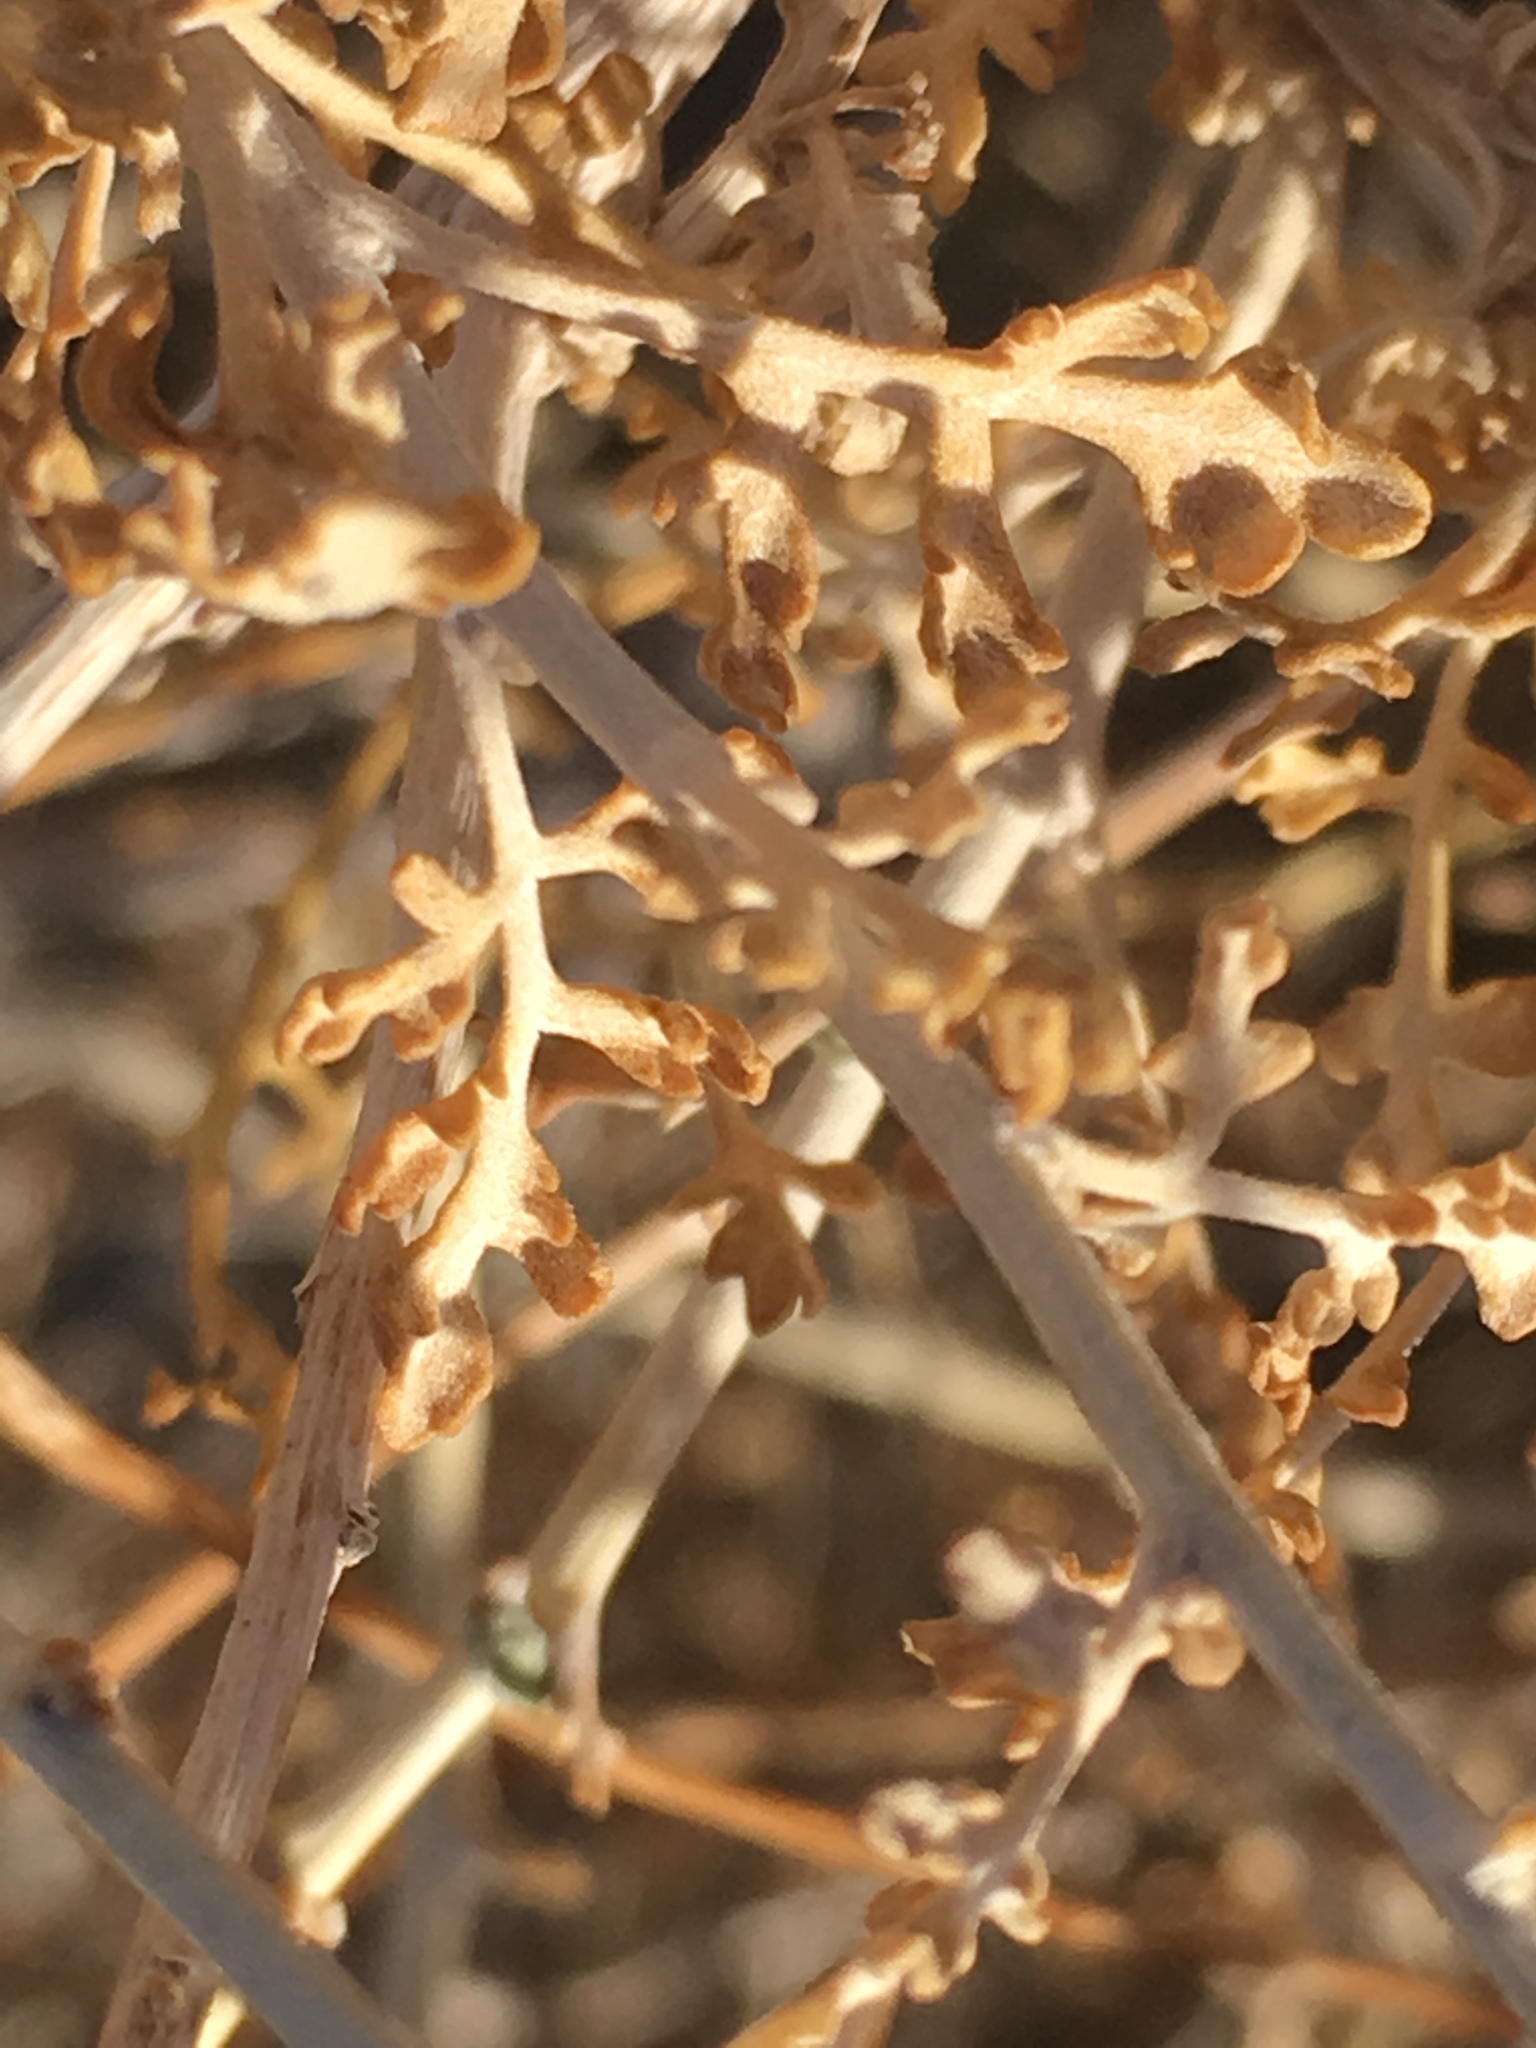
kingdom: Plantae
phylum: Tracheophyta
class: Magnoliopsida
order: Asterales
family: Asteraceae
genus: Ambrosia
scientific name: Ambrosia dumosa
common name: Bur-sage
